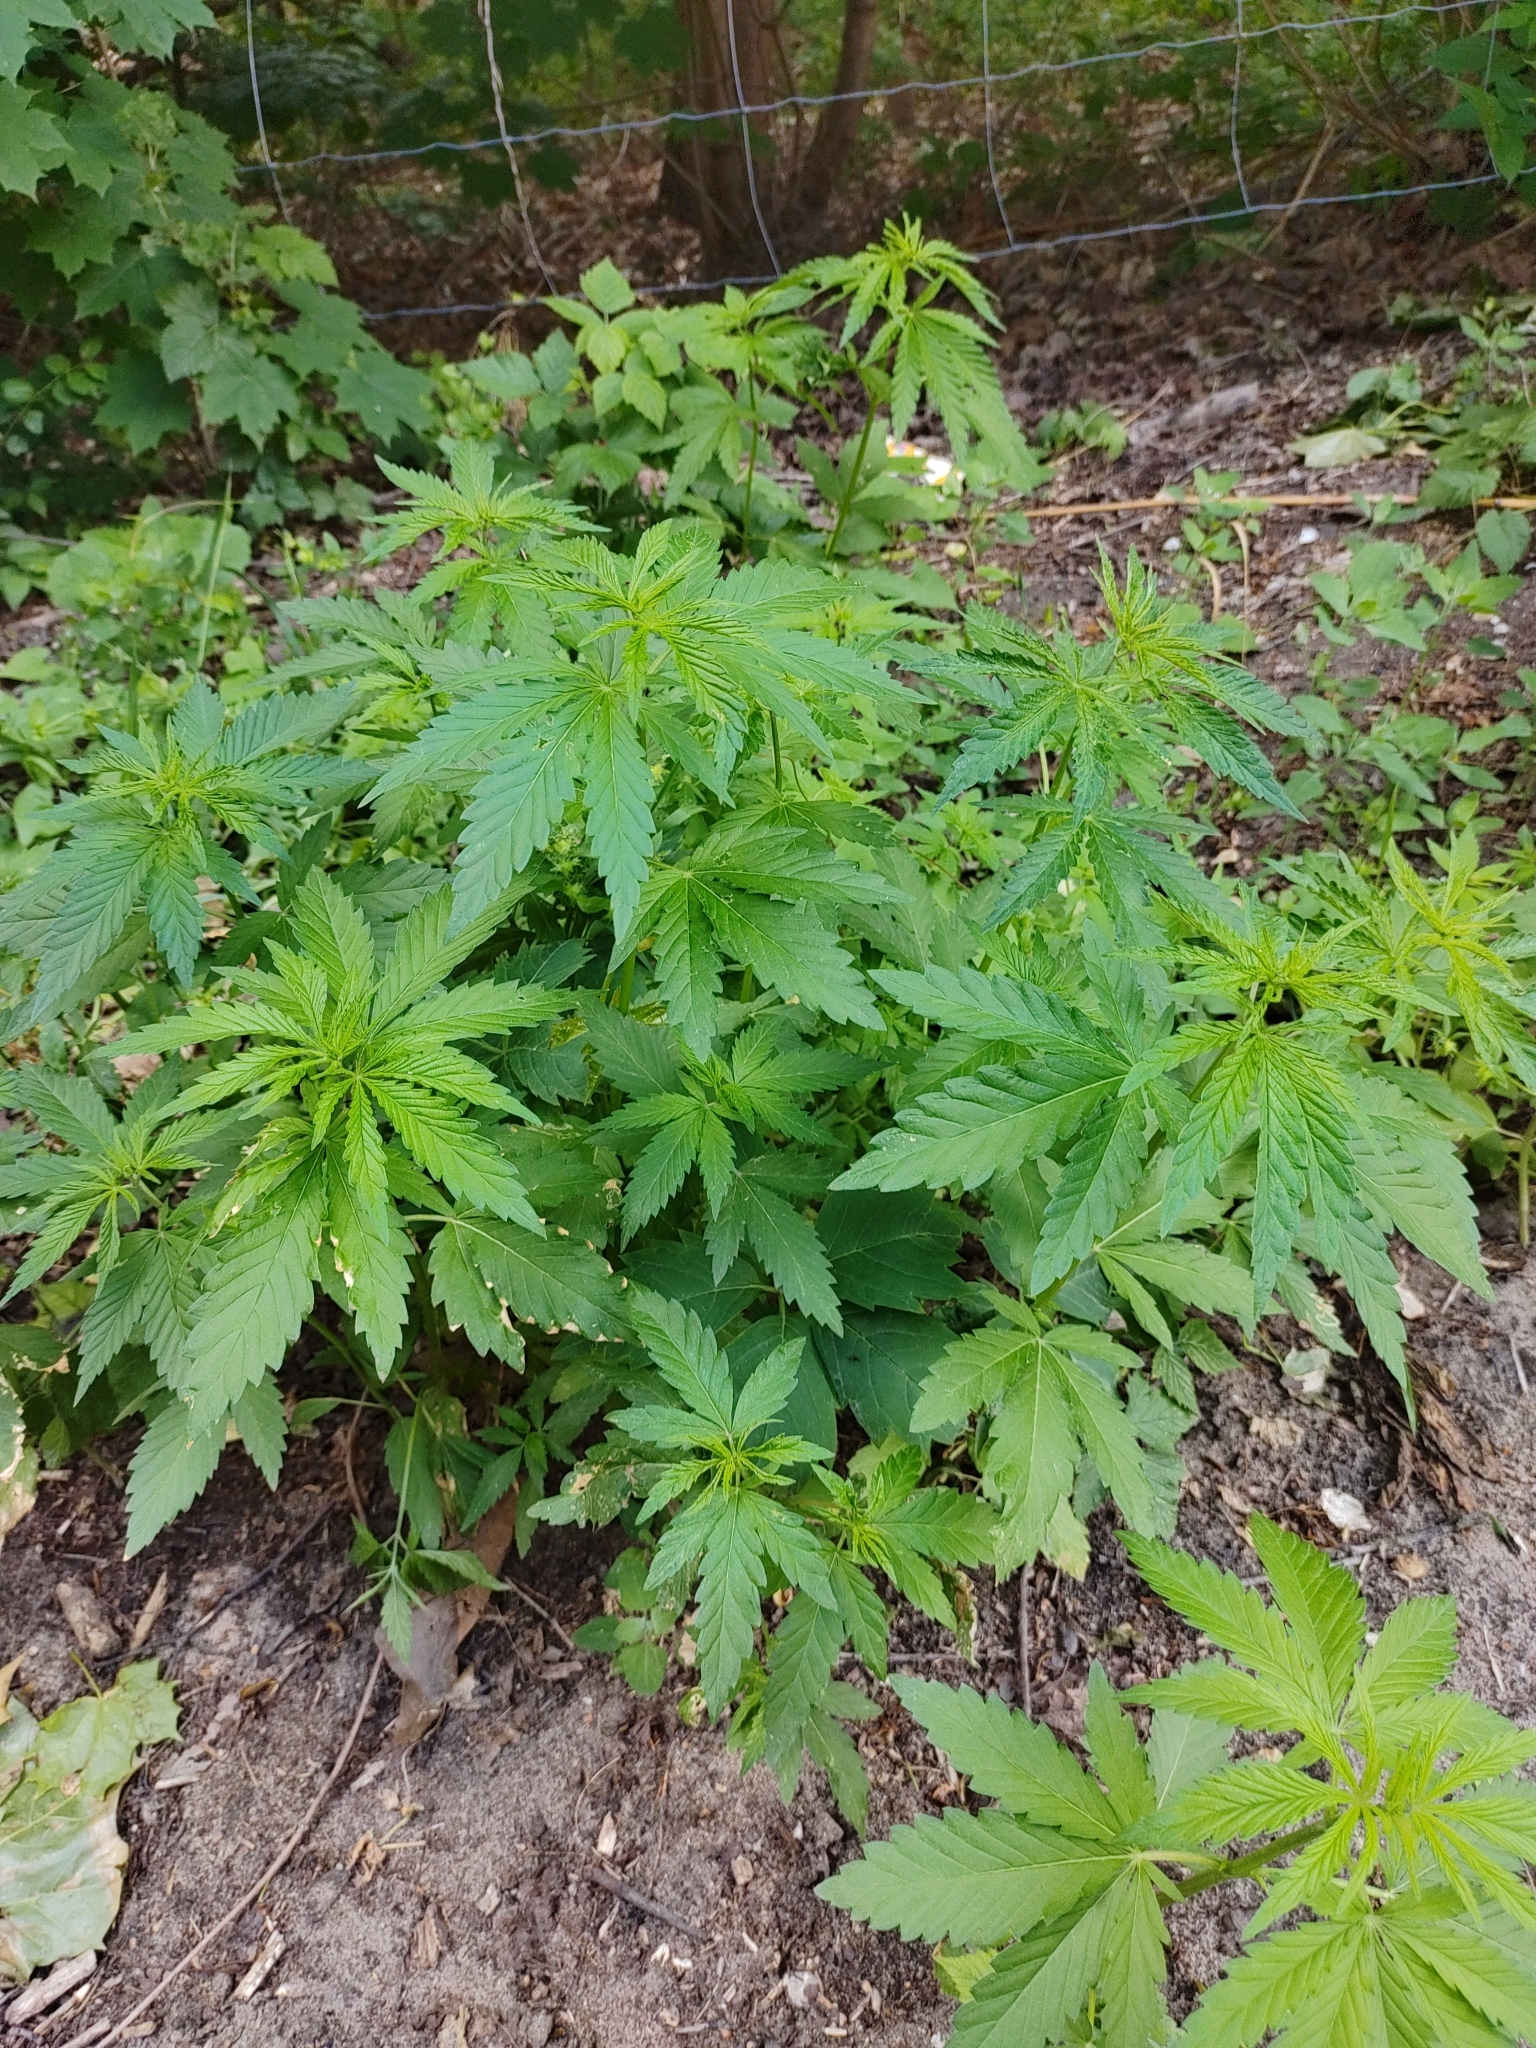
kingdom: Plantae
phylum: Tracheophyta
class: Magnoliopsida
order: Rosales
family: Cannabaceae
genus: Cannabis
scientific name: Cannabis sativa
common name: Hemp
